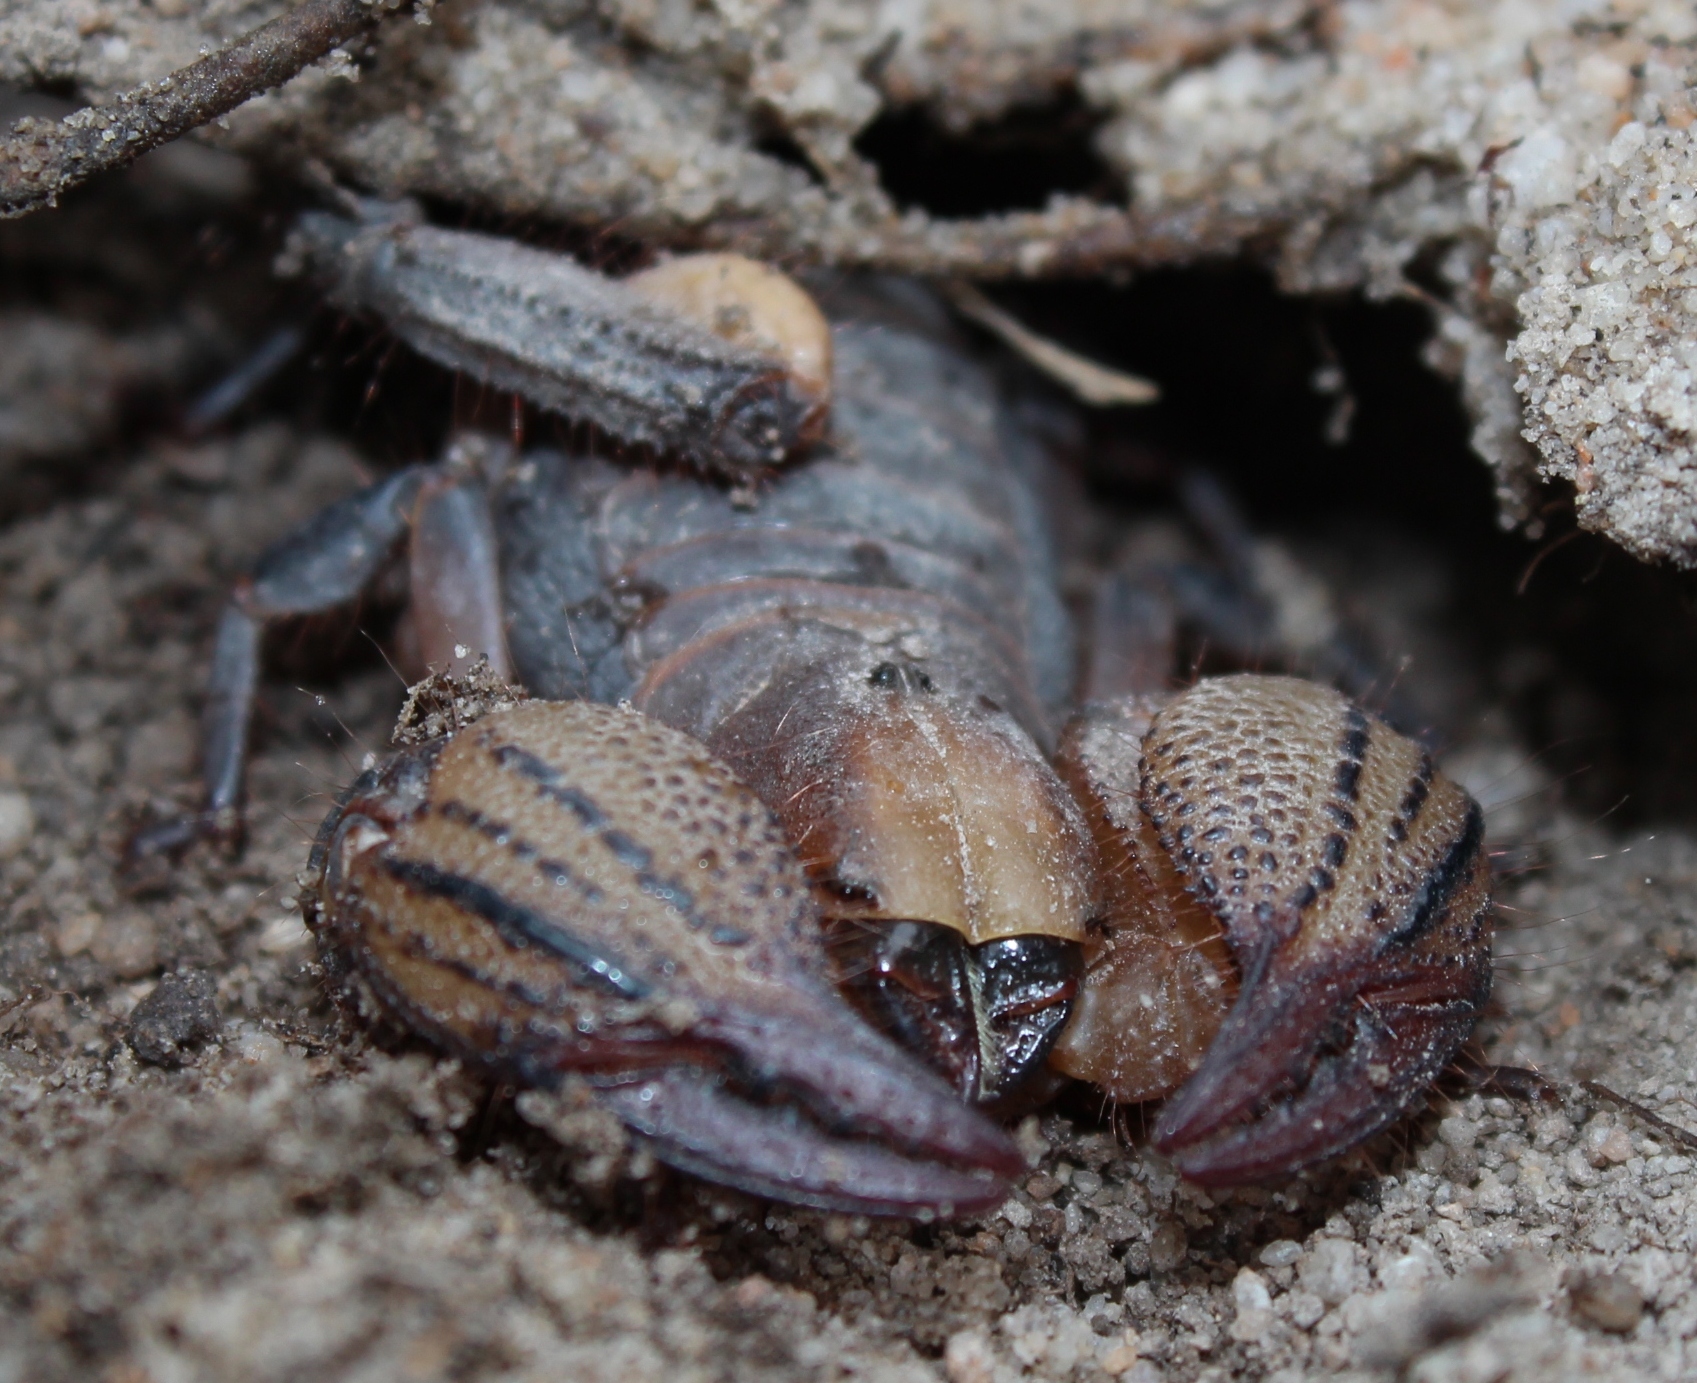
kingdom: Animalia
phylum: Arthropoda
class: Arachnida
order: Scorpiones
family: Scorpionidae
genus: Opistophthalmus
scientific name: Opistophthalmus macer
